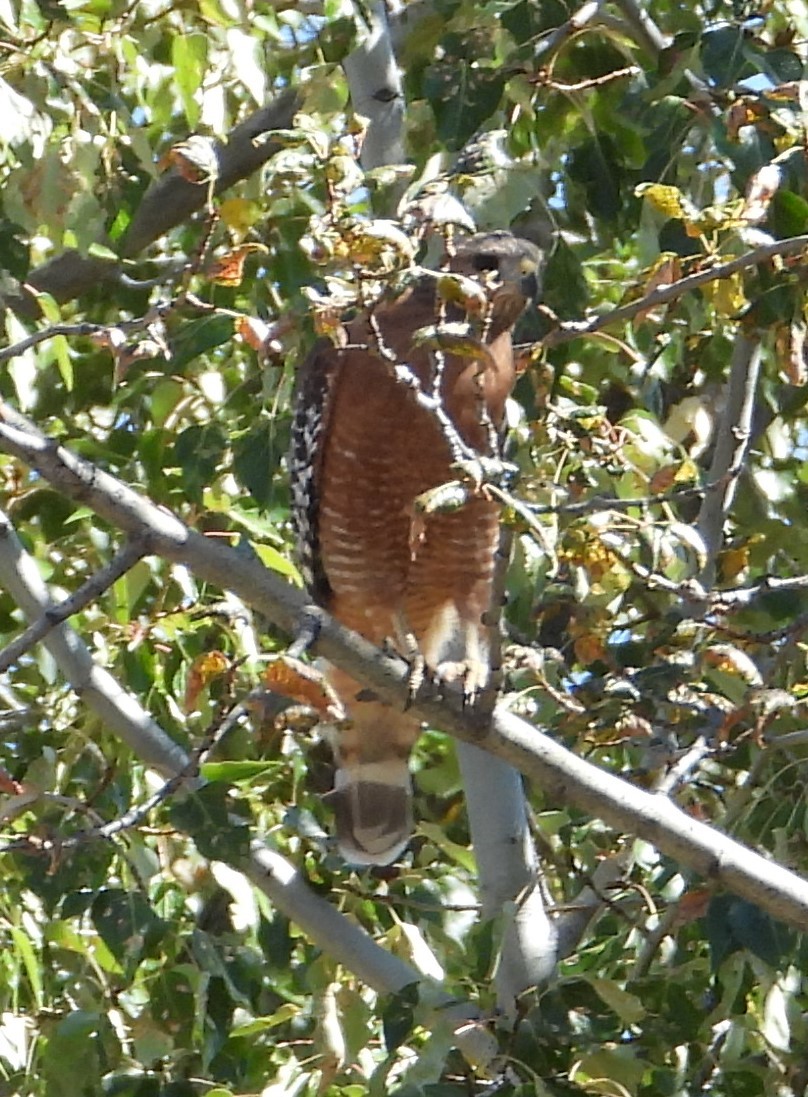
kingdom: Animalia
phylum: Chordata
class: Aves
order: Accipitriformes
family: Accipitridae
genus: Buteo
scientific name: Buteo lineatus
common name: Red-shouldered hawk
